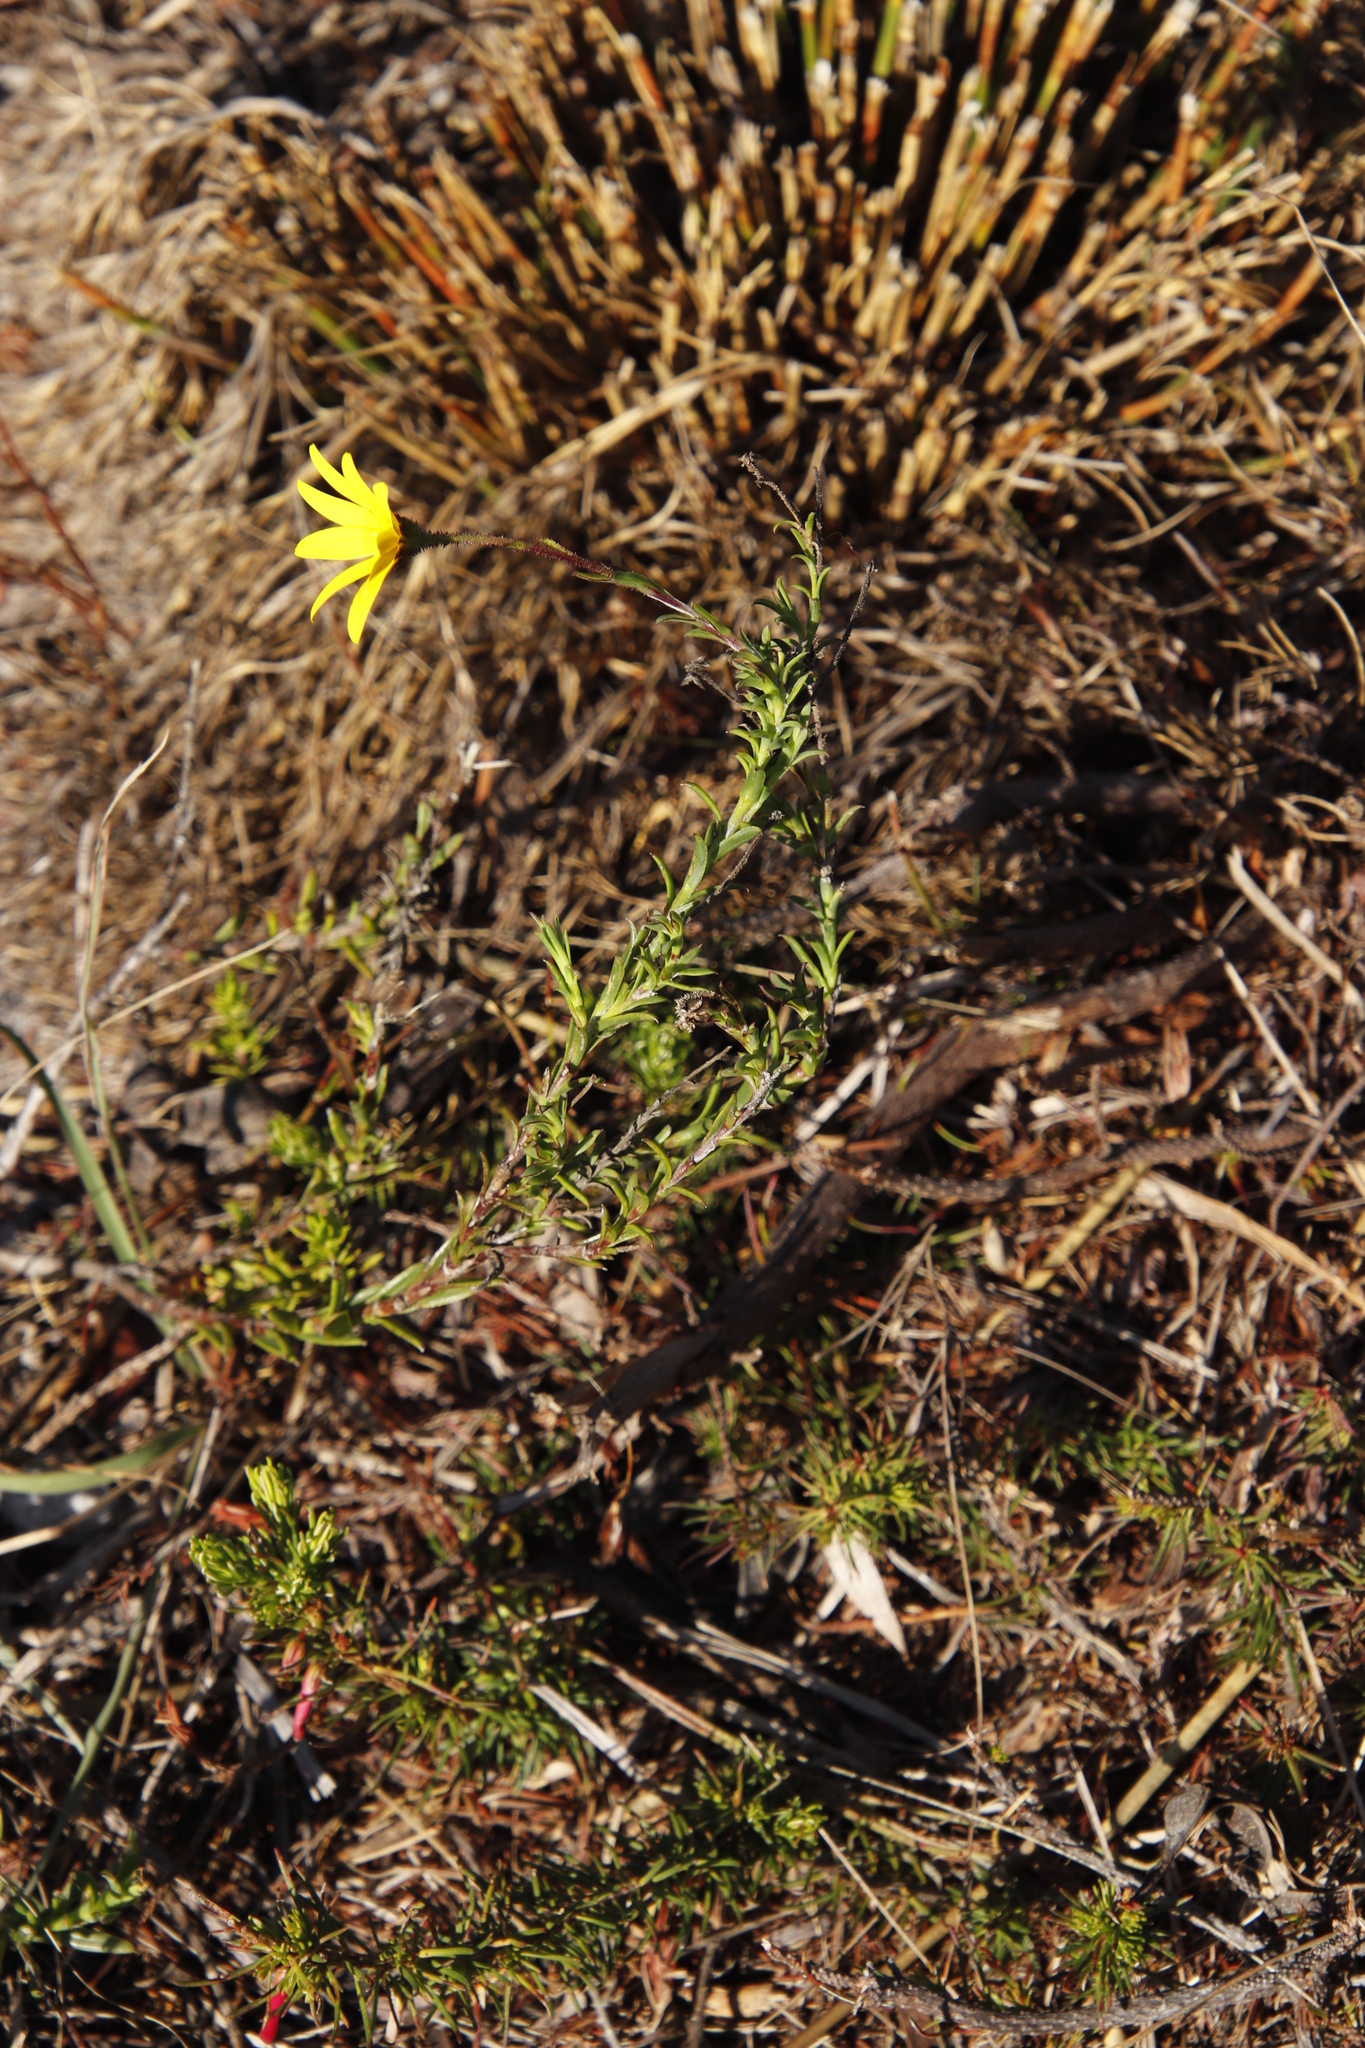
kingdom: Plantae
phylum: Tracheophyta
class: Magnoliopsida
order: Asterales
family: Asteraceae
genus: Osteospermum
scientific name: Osteospermum polygaloides
